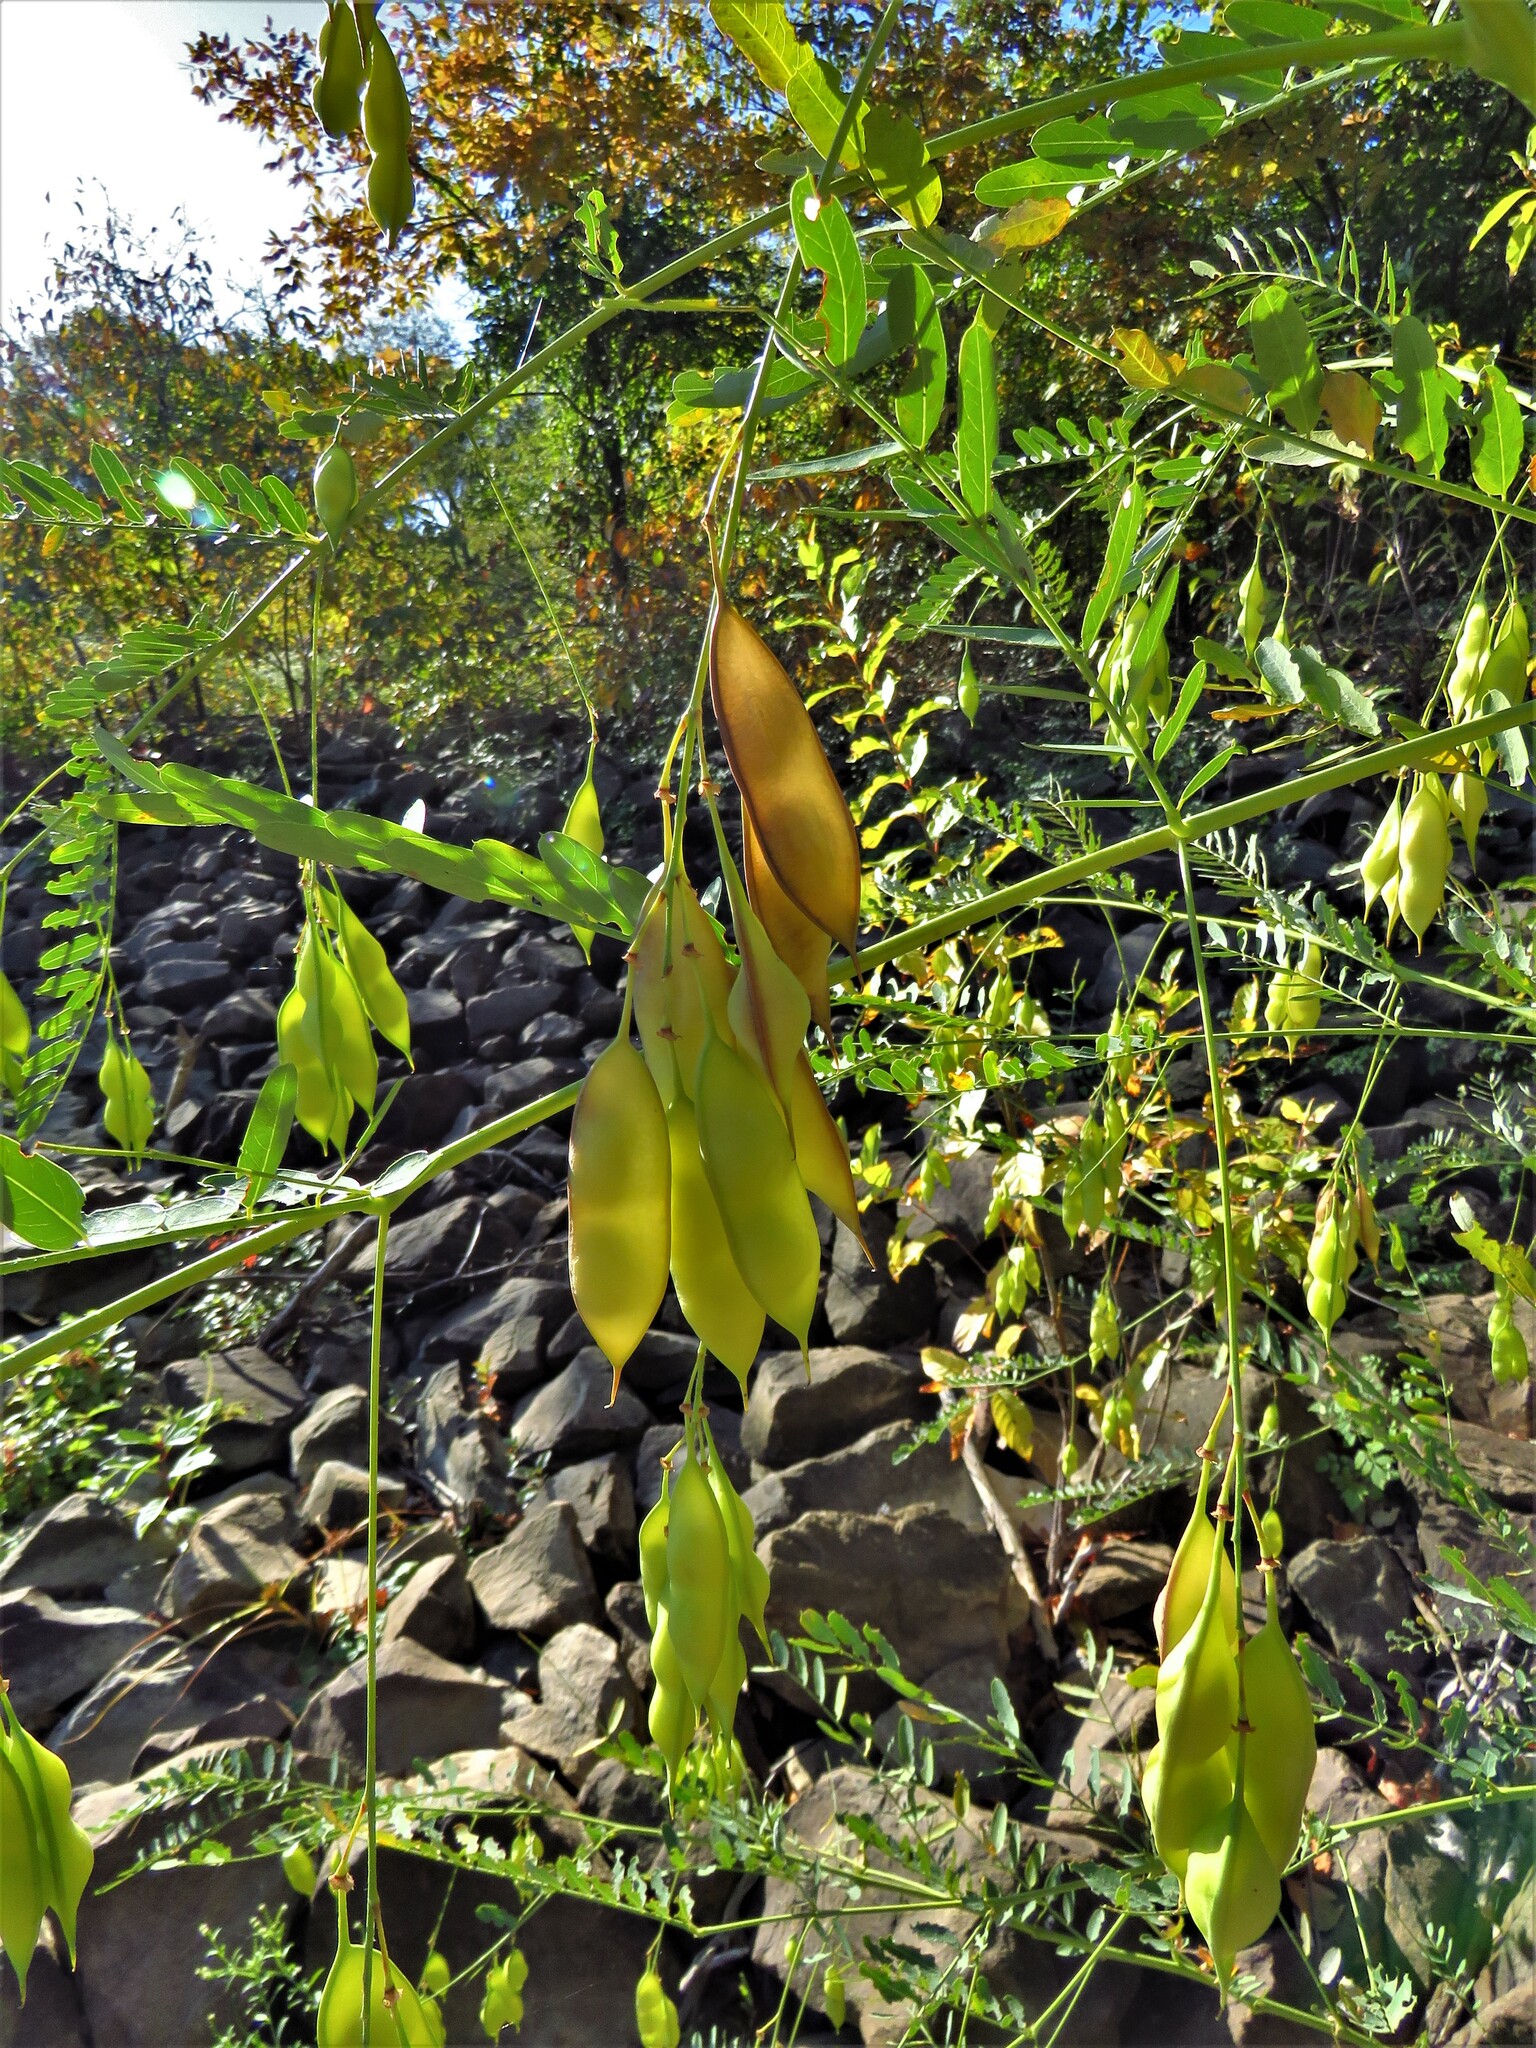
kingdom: Plantae
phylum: Tracheophyta
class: Magnoliopsida
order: Fabales
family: Fabaceae
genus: Sesbania
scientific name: Sesbania vesicaria
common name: Bagpod
